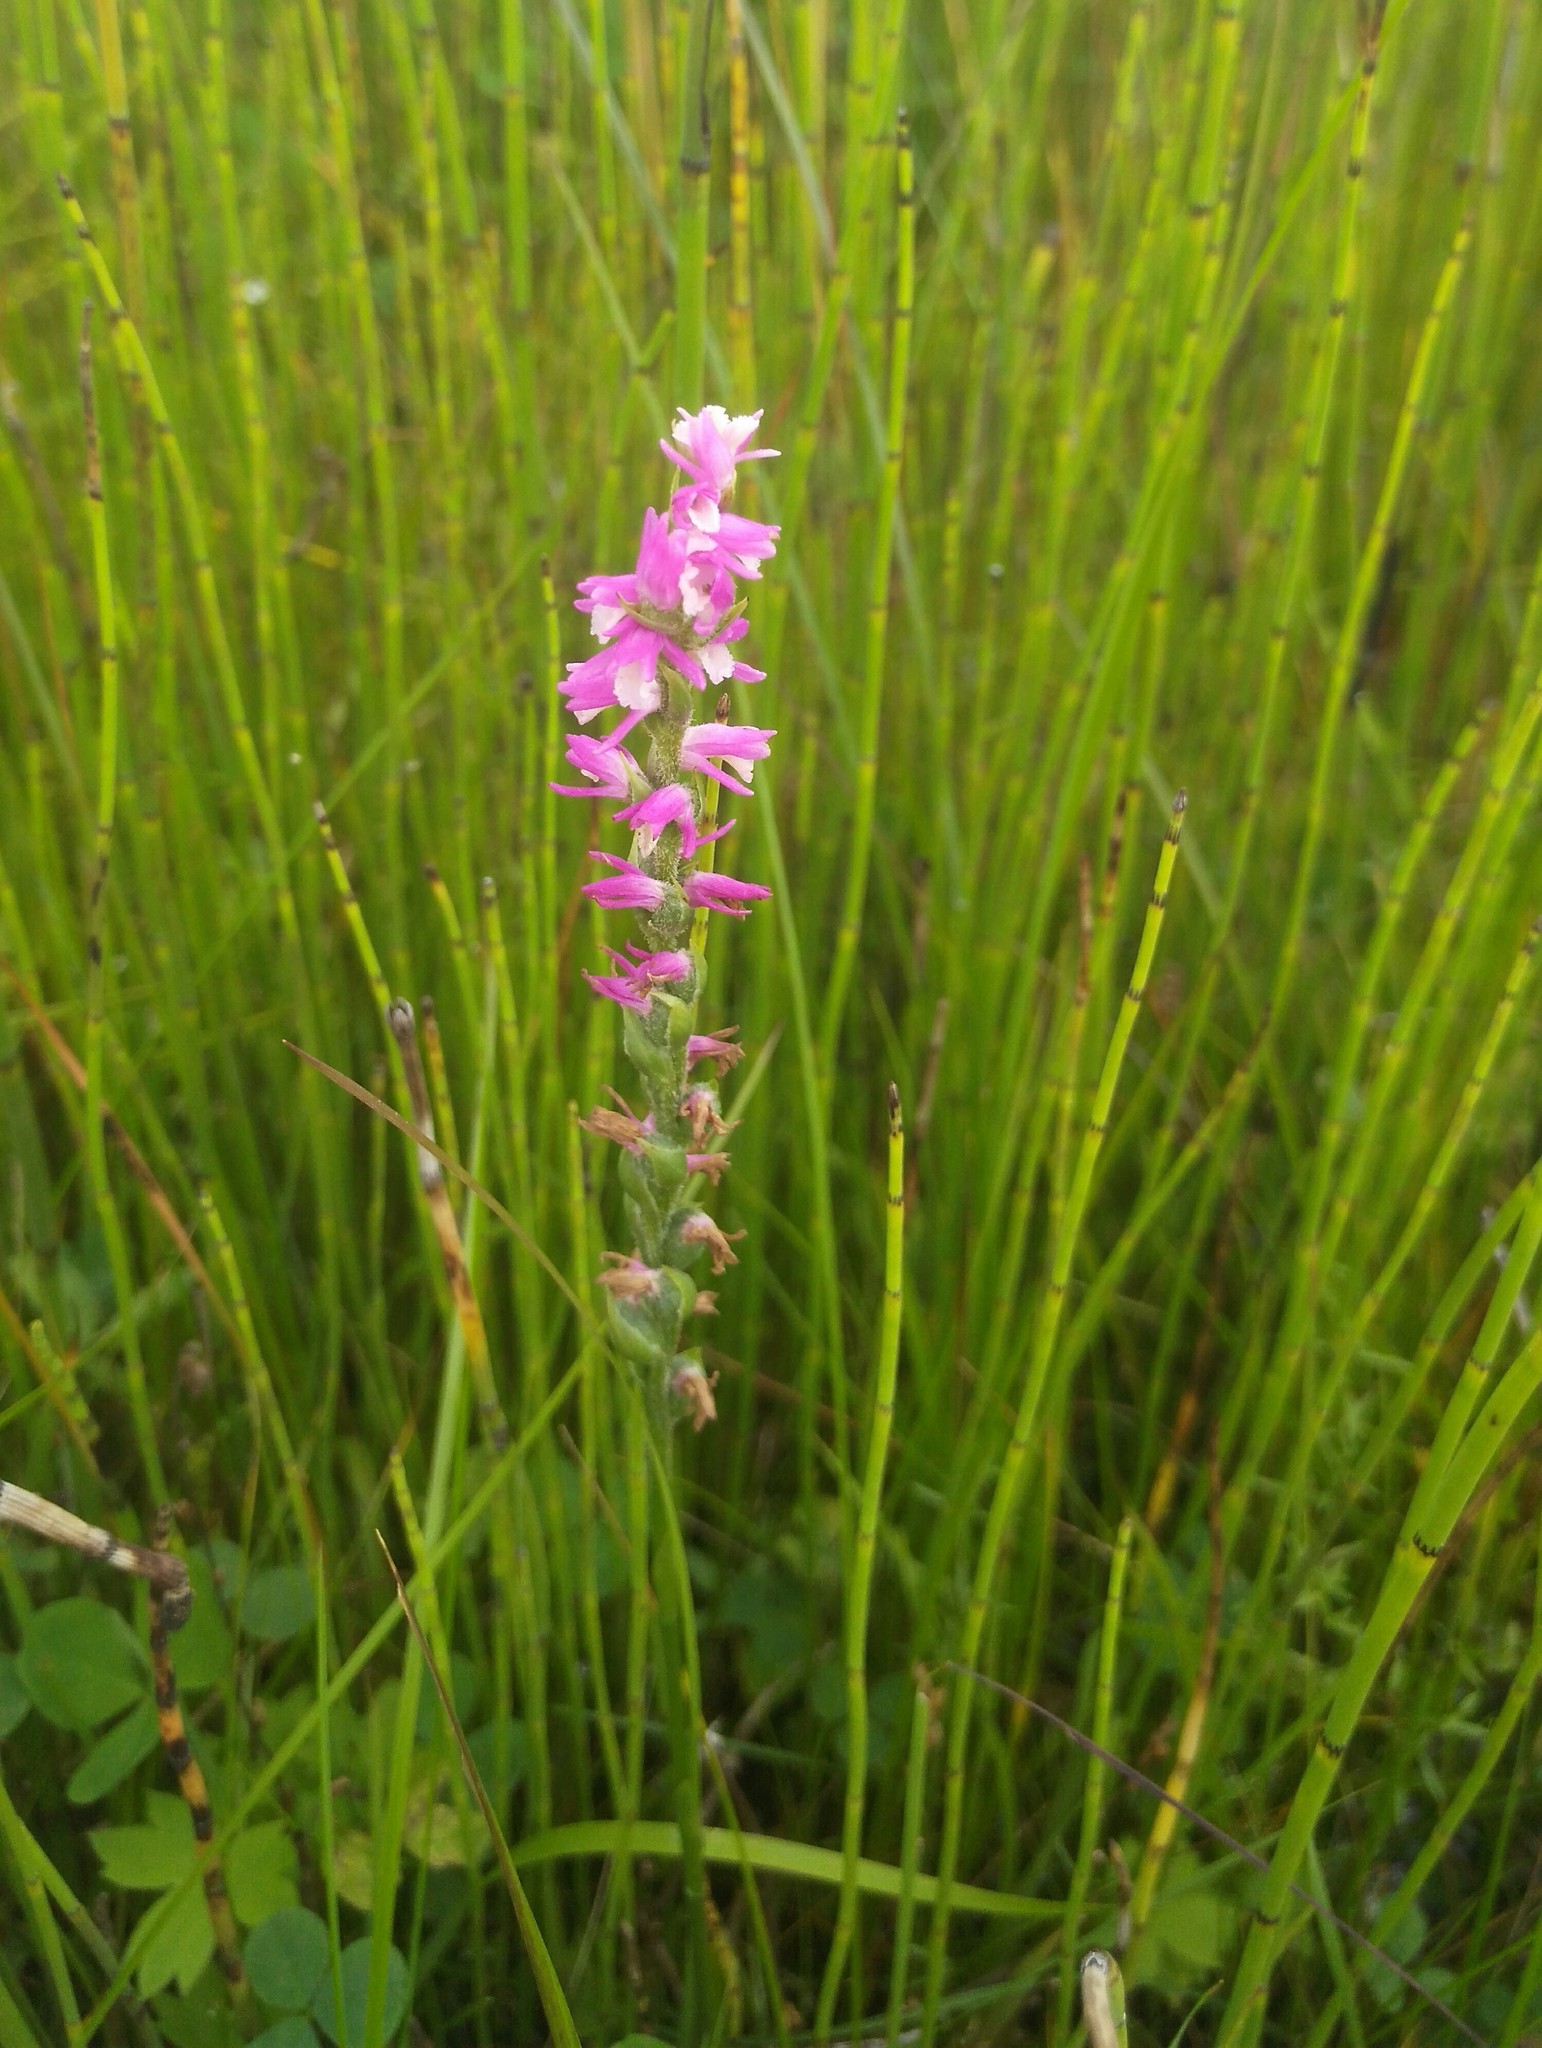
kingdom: Plantae
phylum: Tracheophyta
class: Liliopsida
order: Asparagales
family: Orchidaceae
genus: Spiranthes
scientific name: Spiranthes australis
